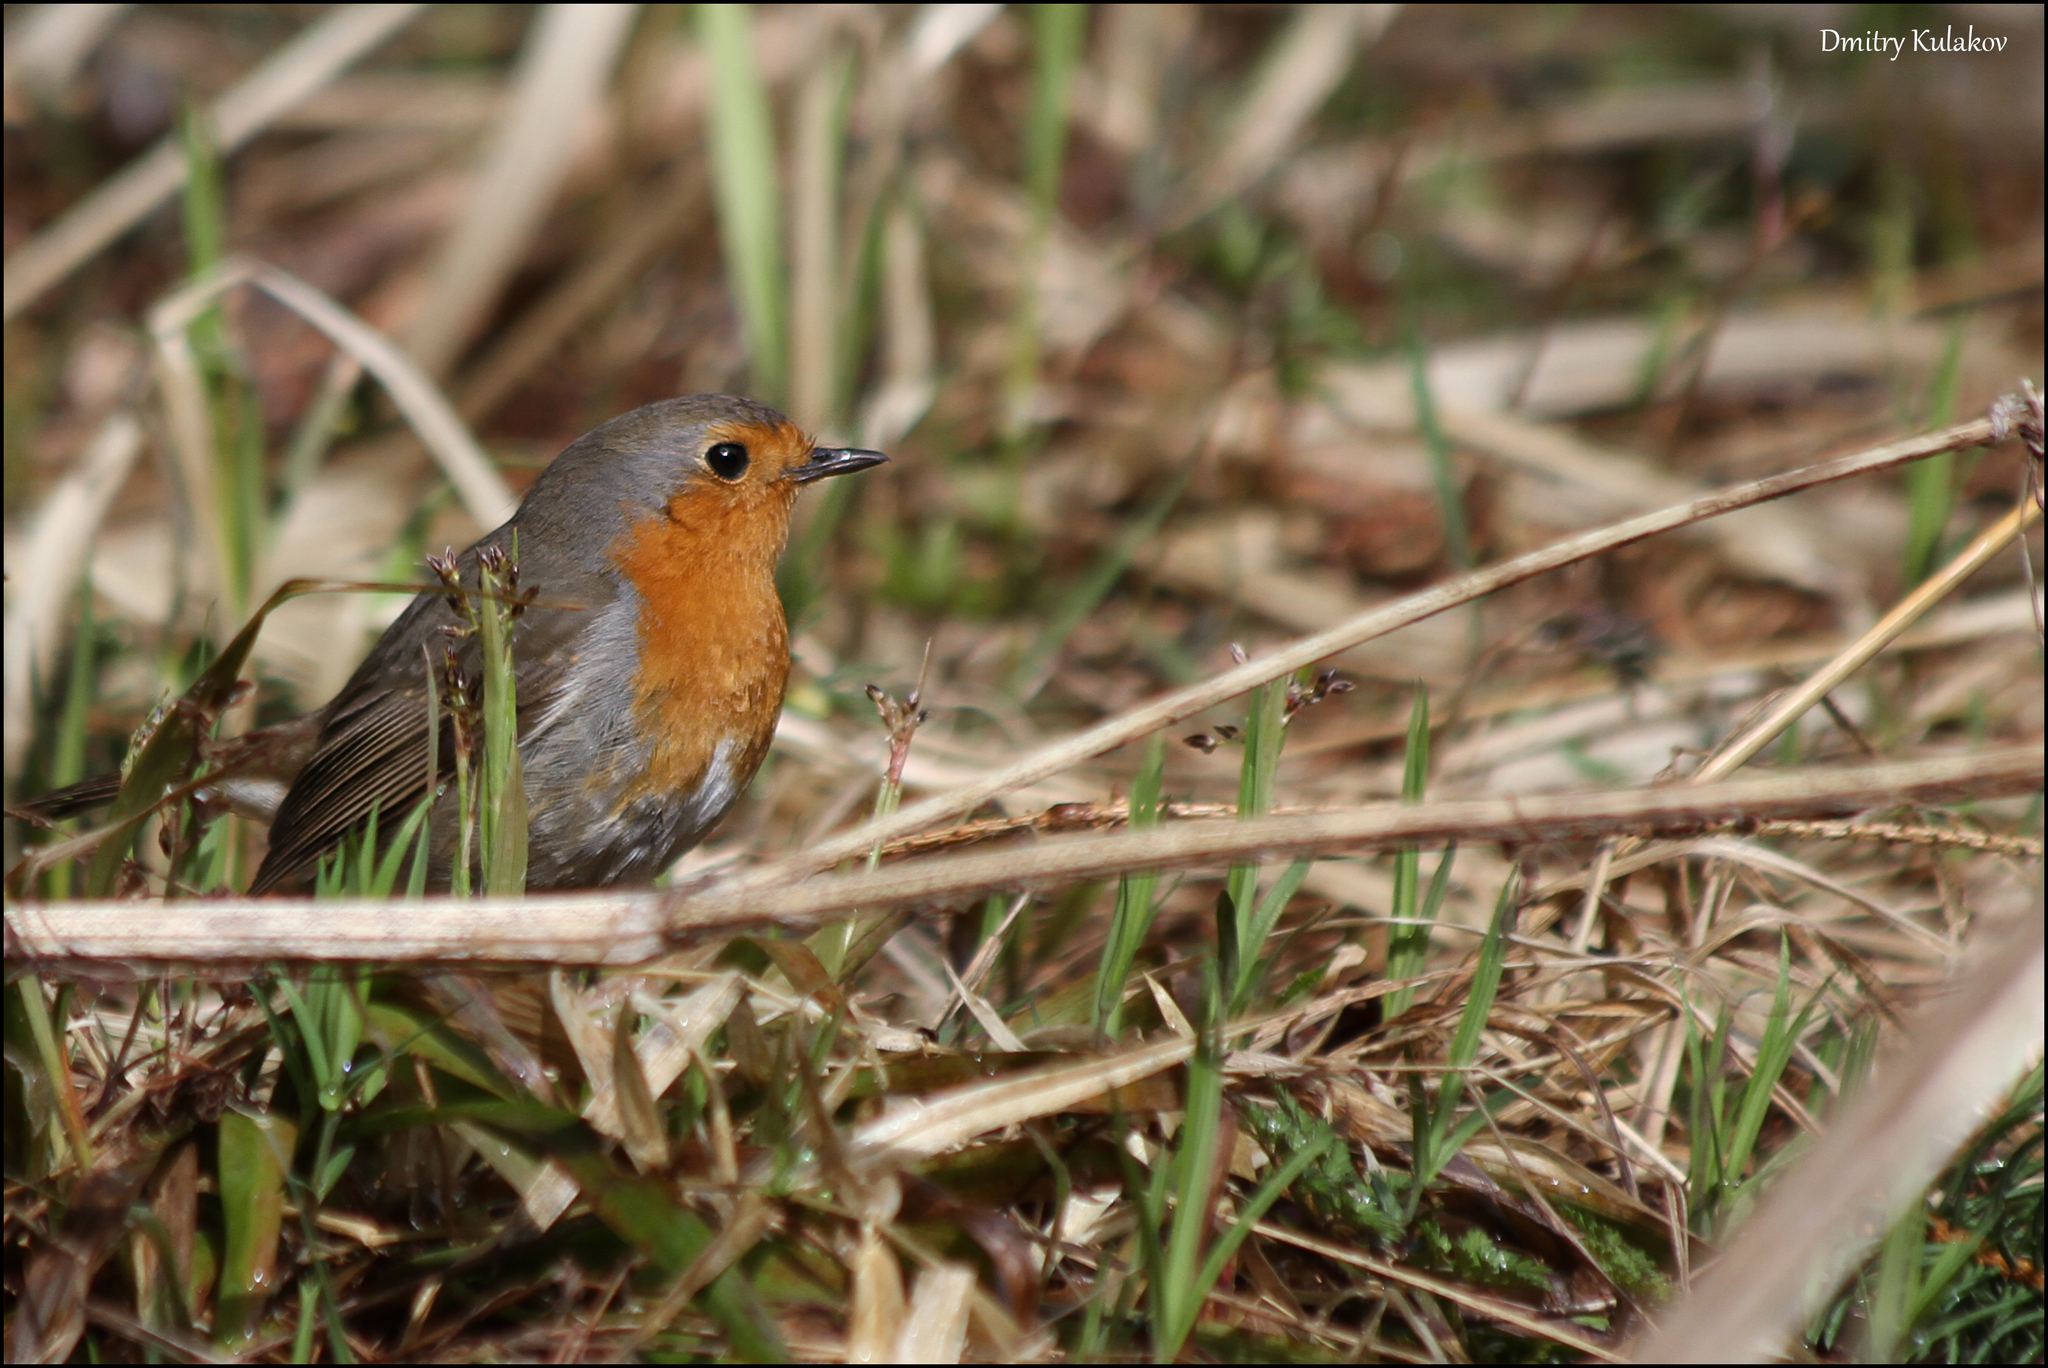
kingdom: Animalia
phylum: Chordata
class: Aves
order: Passeriformes
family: Muscicapidae
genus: Erithacus
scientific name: Erithacus rubecula
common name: European robin
